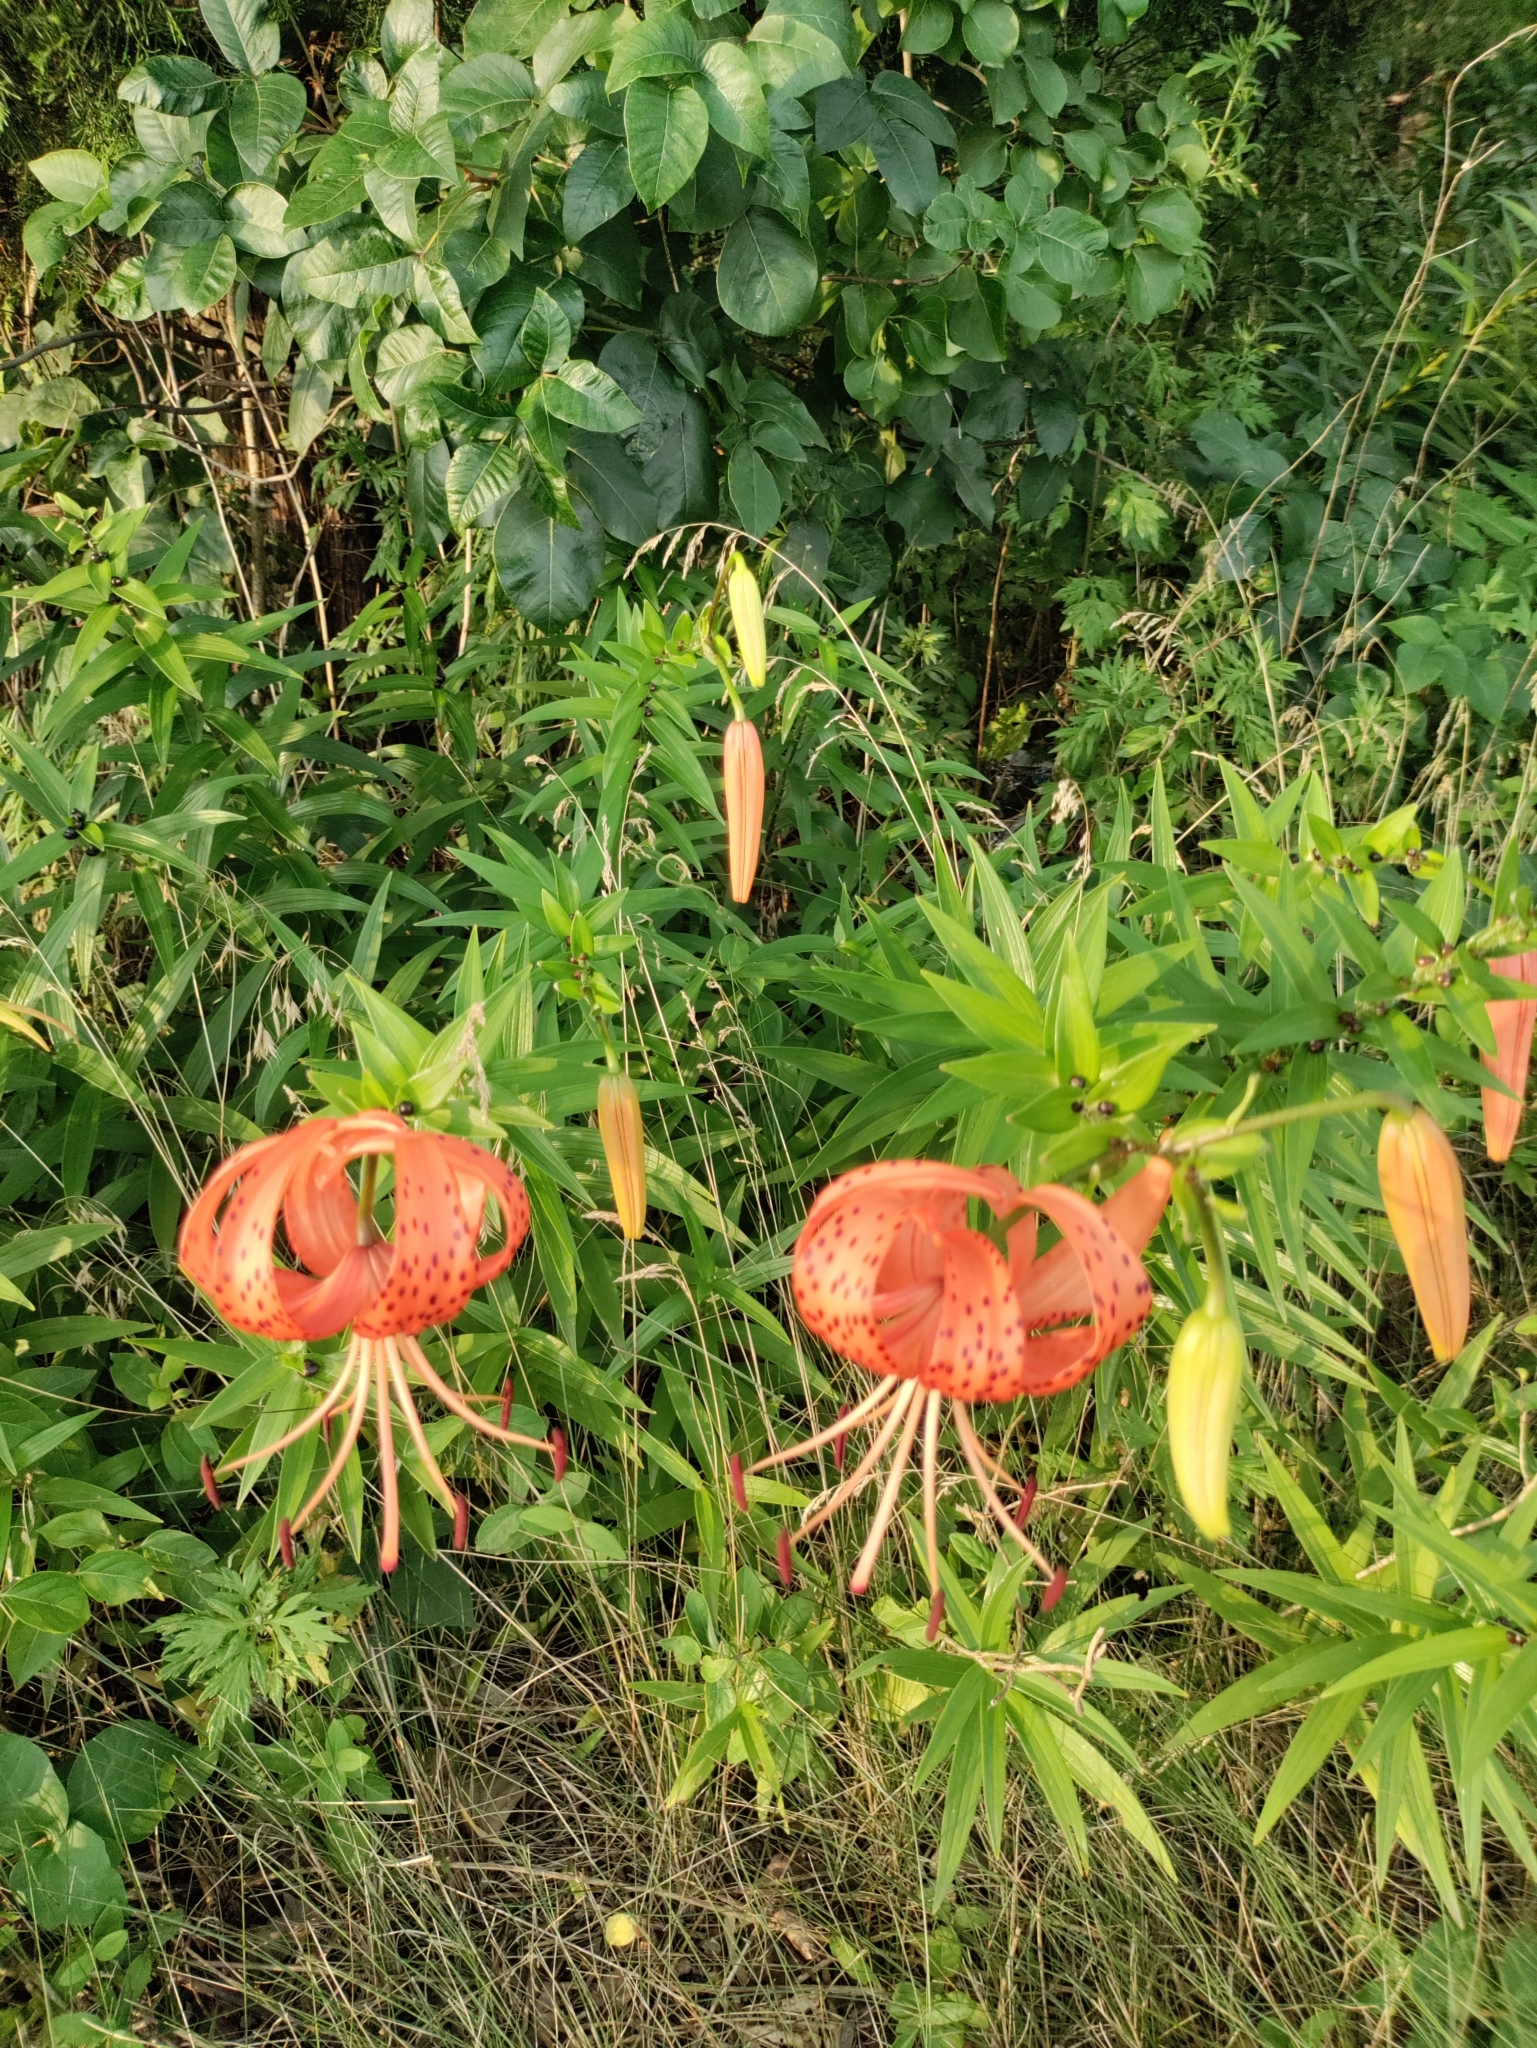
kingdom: Plantae
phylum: Tracheophyta
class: Liliopsida
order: Liliales
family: Liliaceae
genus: Lilium
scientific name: Lilium lancifolium
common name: Tiger lily
